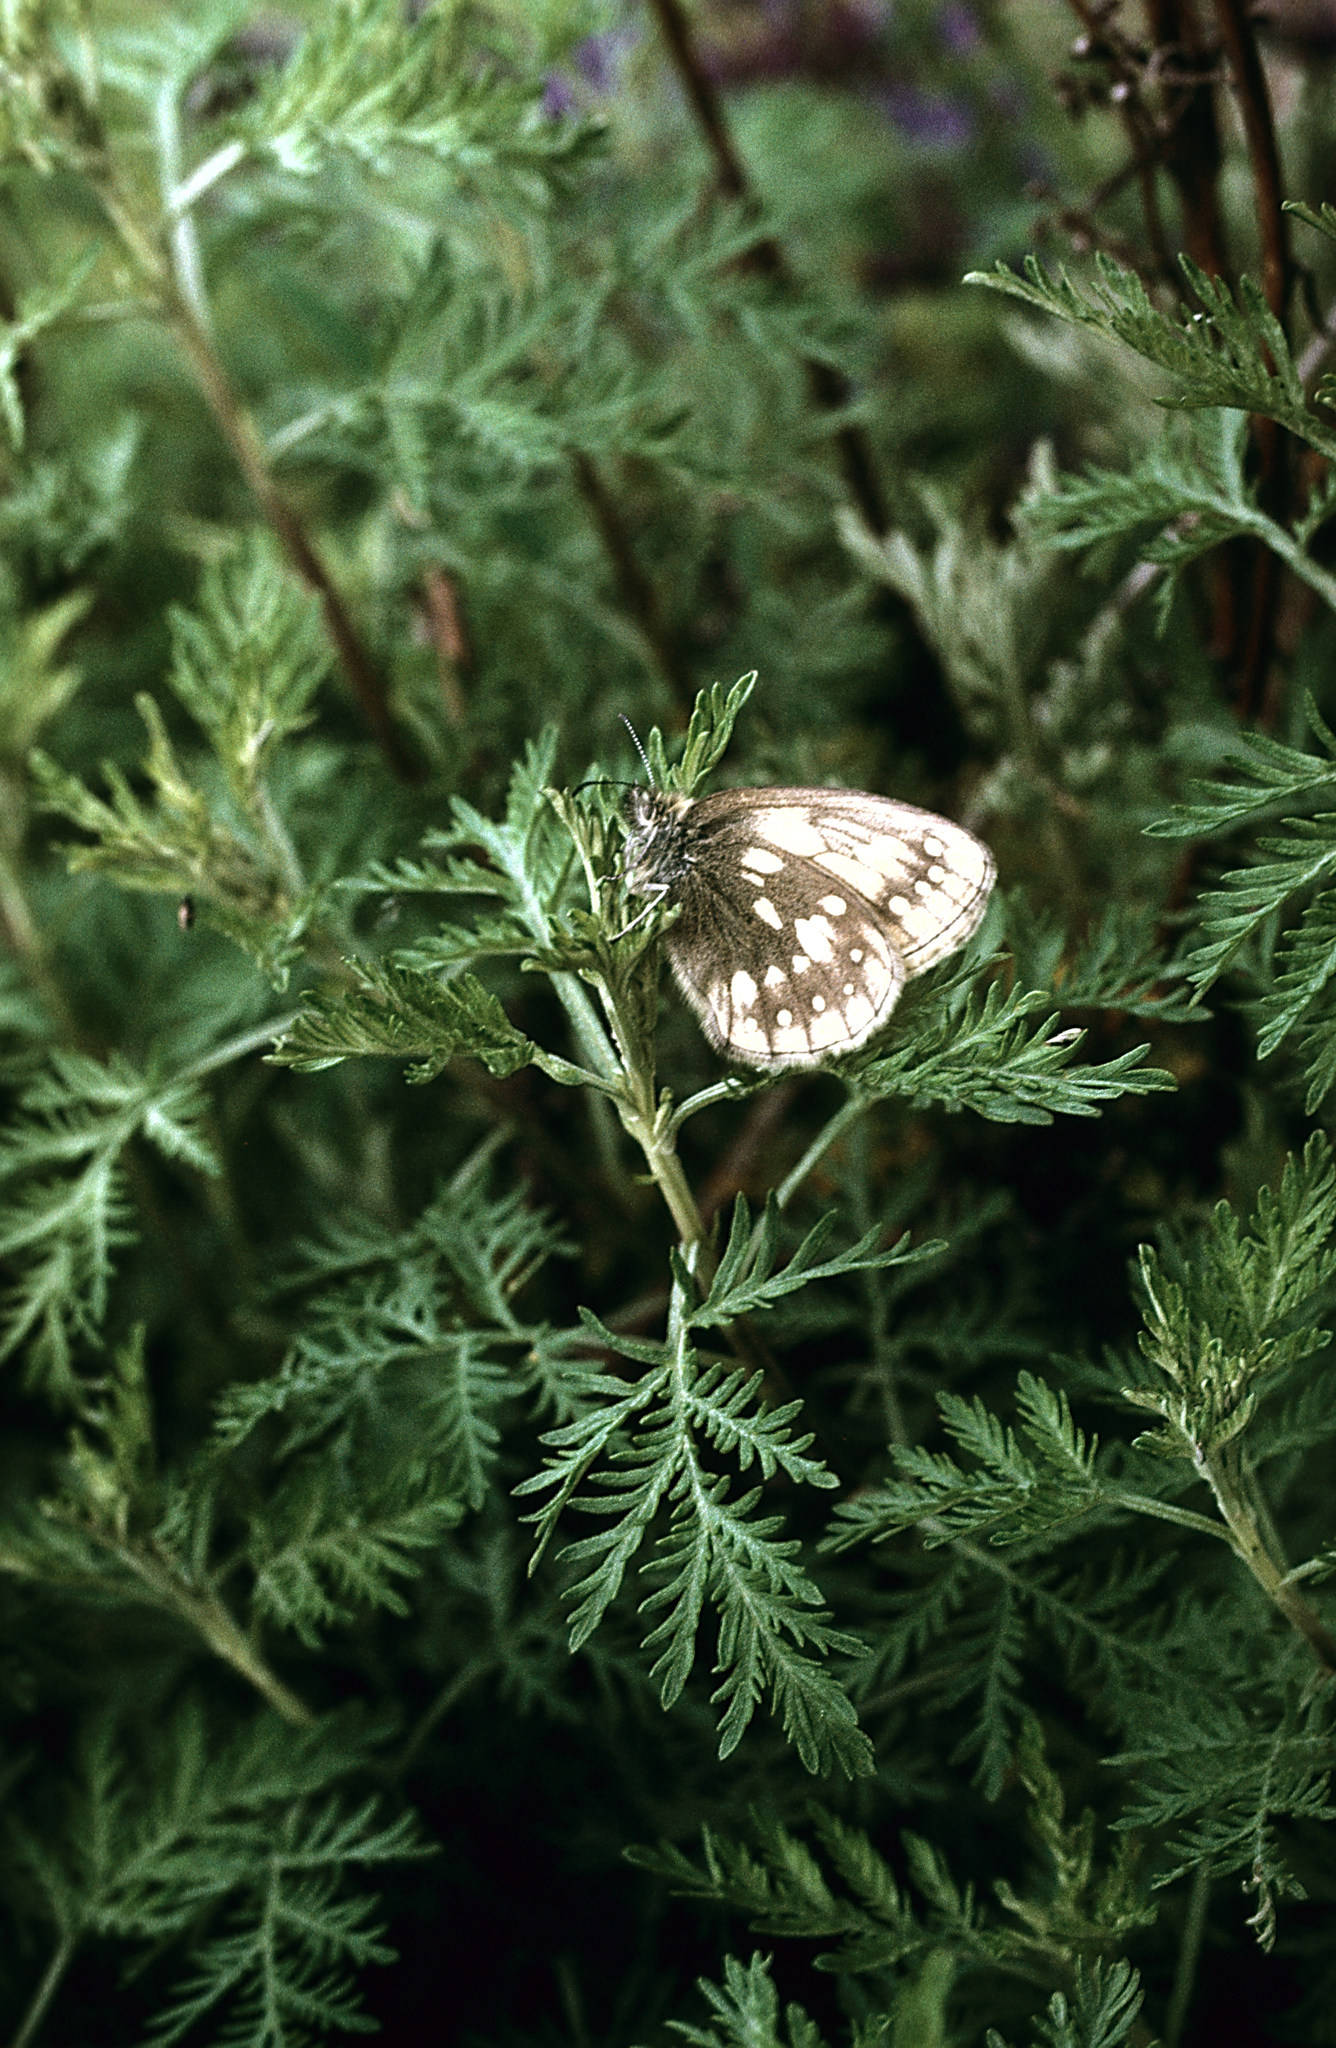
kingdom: Animalia
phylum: Arthropoda
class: Insecta
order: Lepidoptera
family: Nymphalidae
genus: Coenonympha
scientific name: Coenonympha sunbecca
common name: Sunbecca heath
